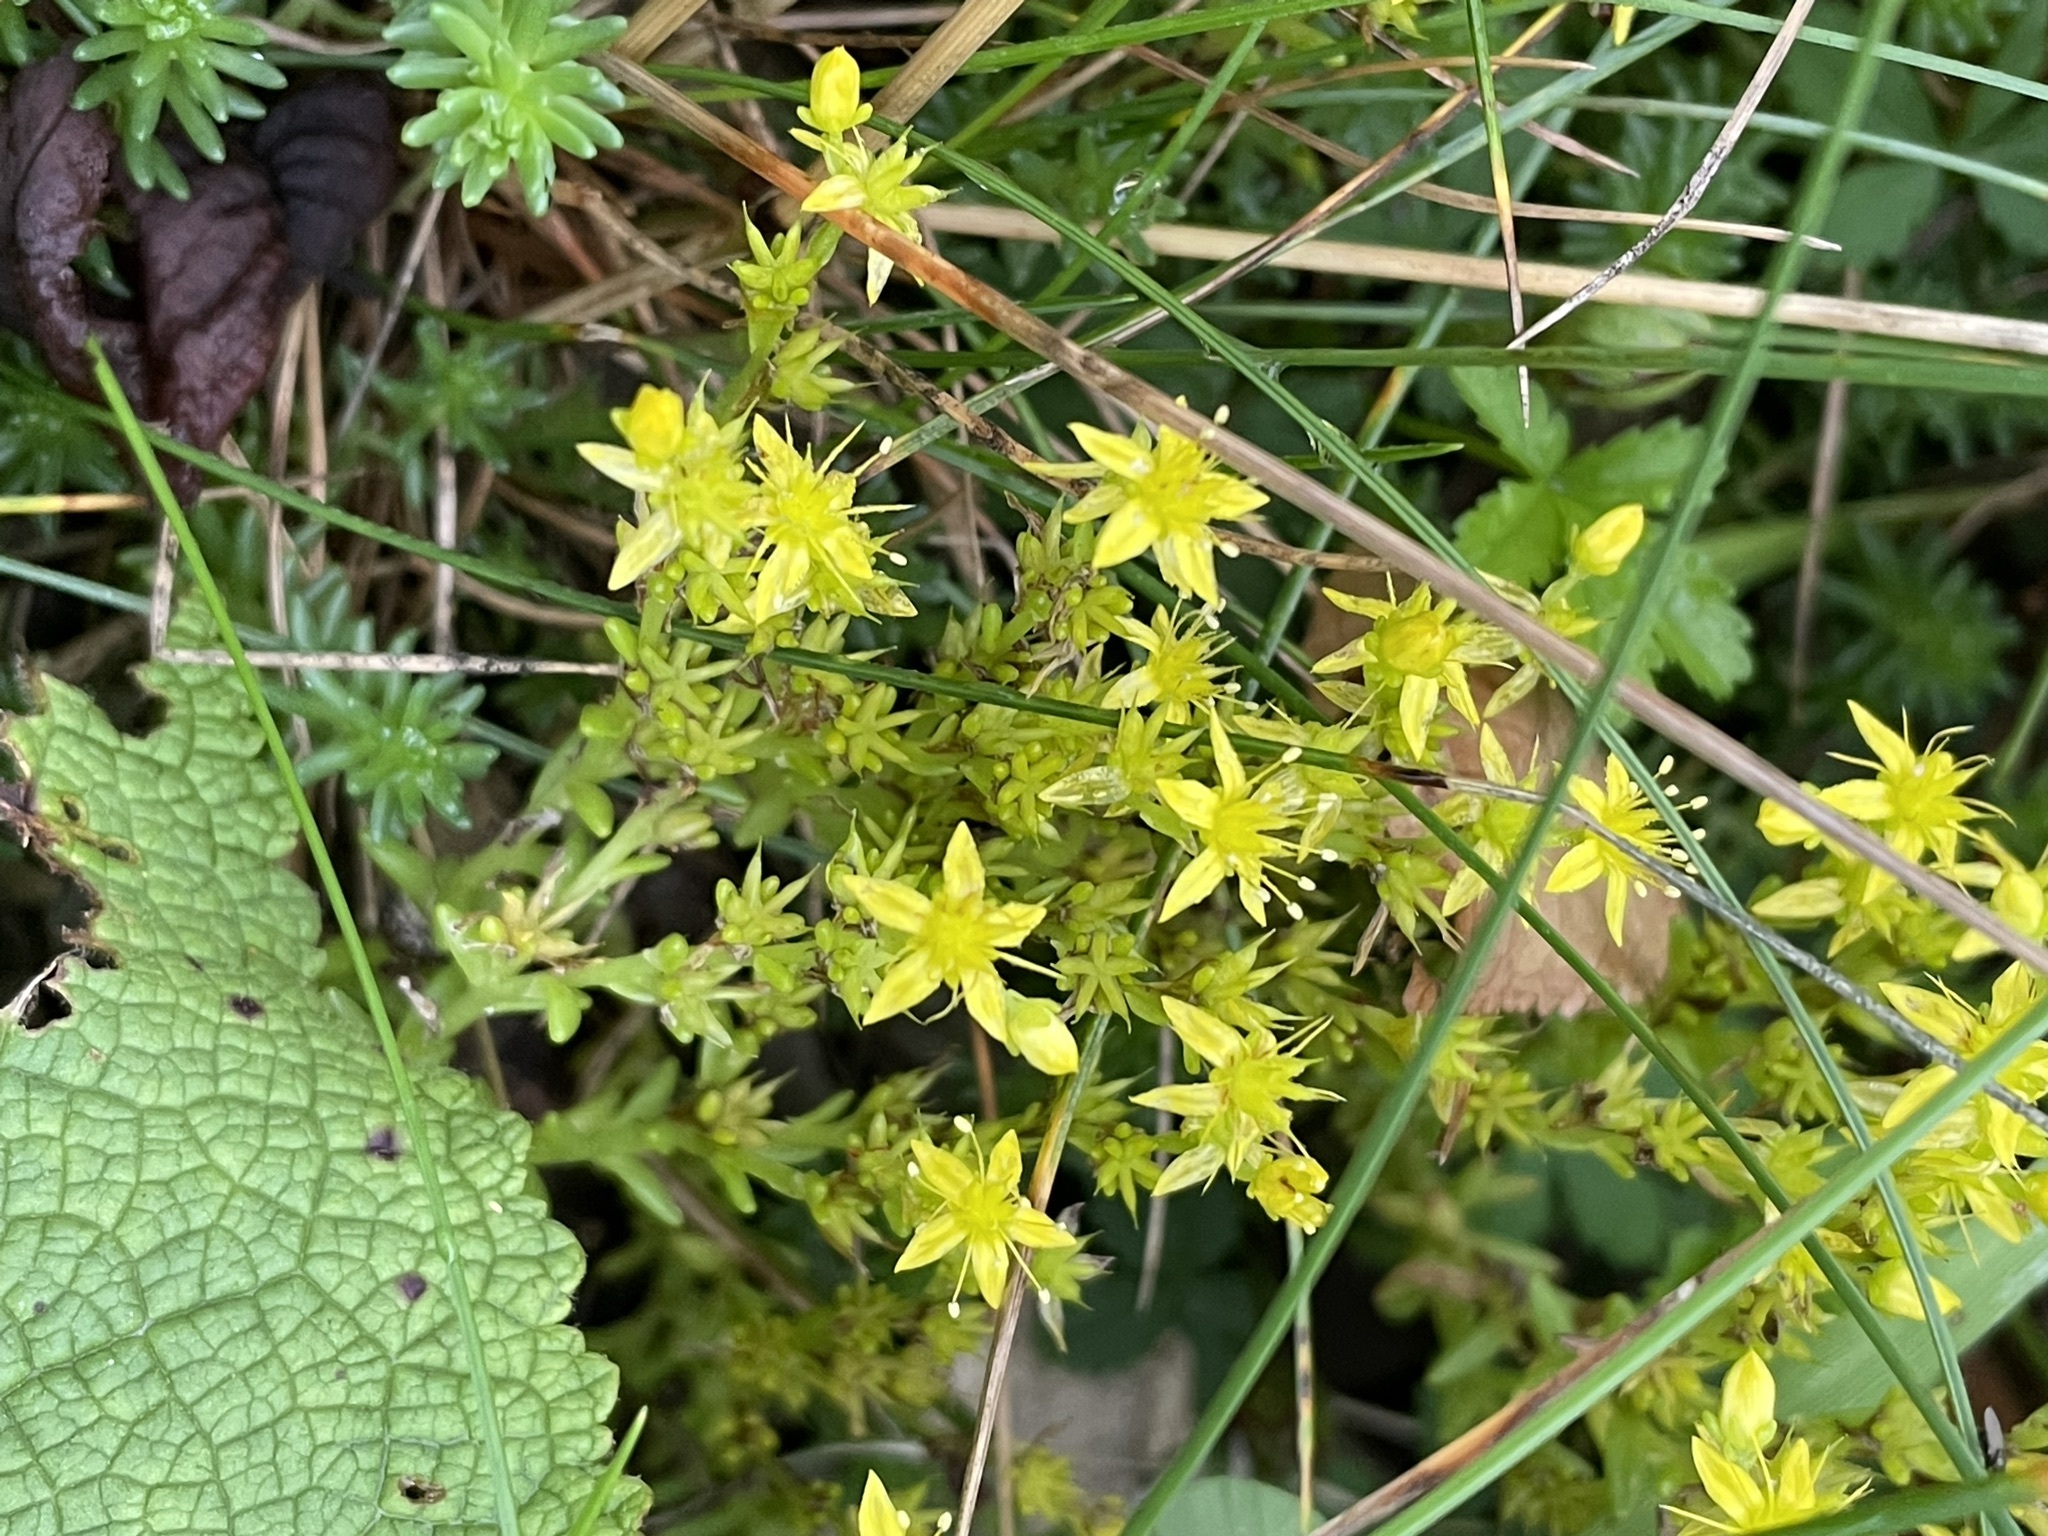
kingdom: Plantae
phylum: Tracheophyta
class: Magnoliopsida
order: Saxifragales
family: Crassulaceae
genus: Sedum
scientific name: Sedum sexangulare
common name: Tasteless stonecrop
